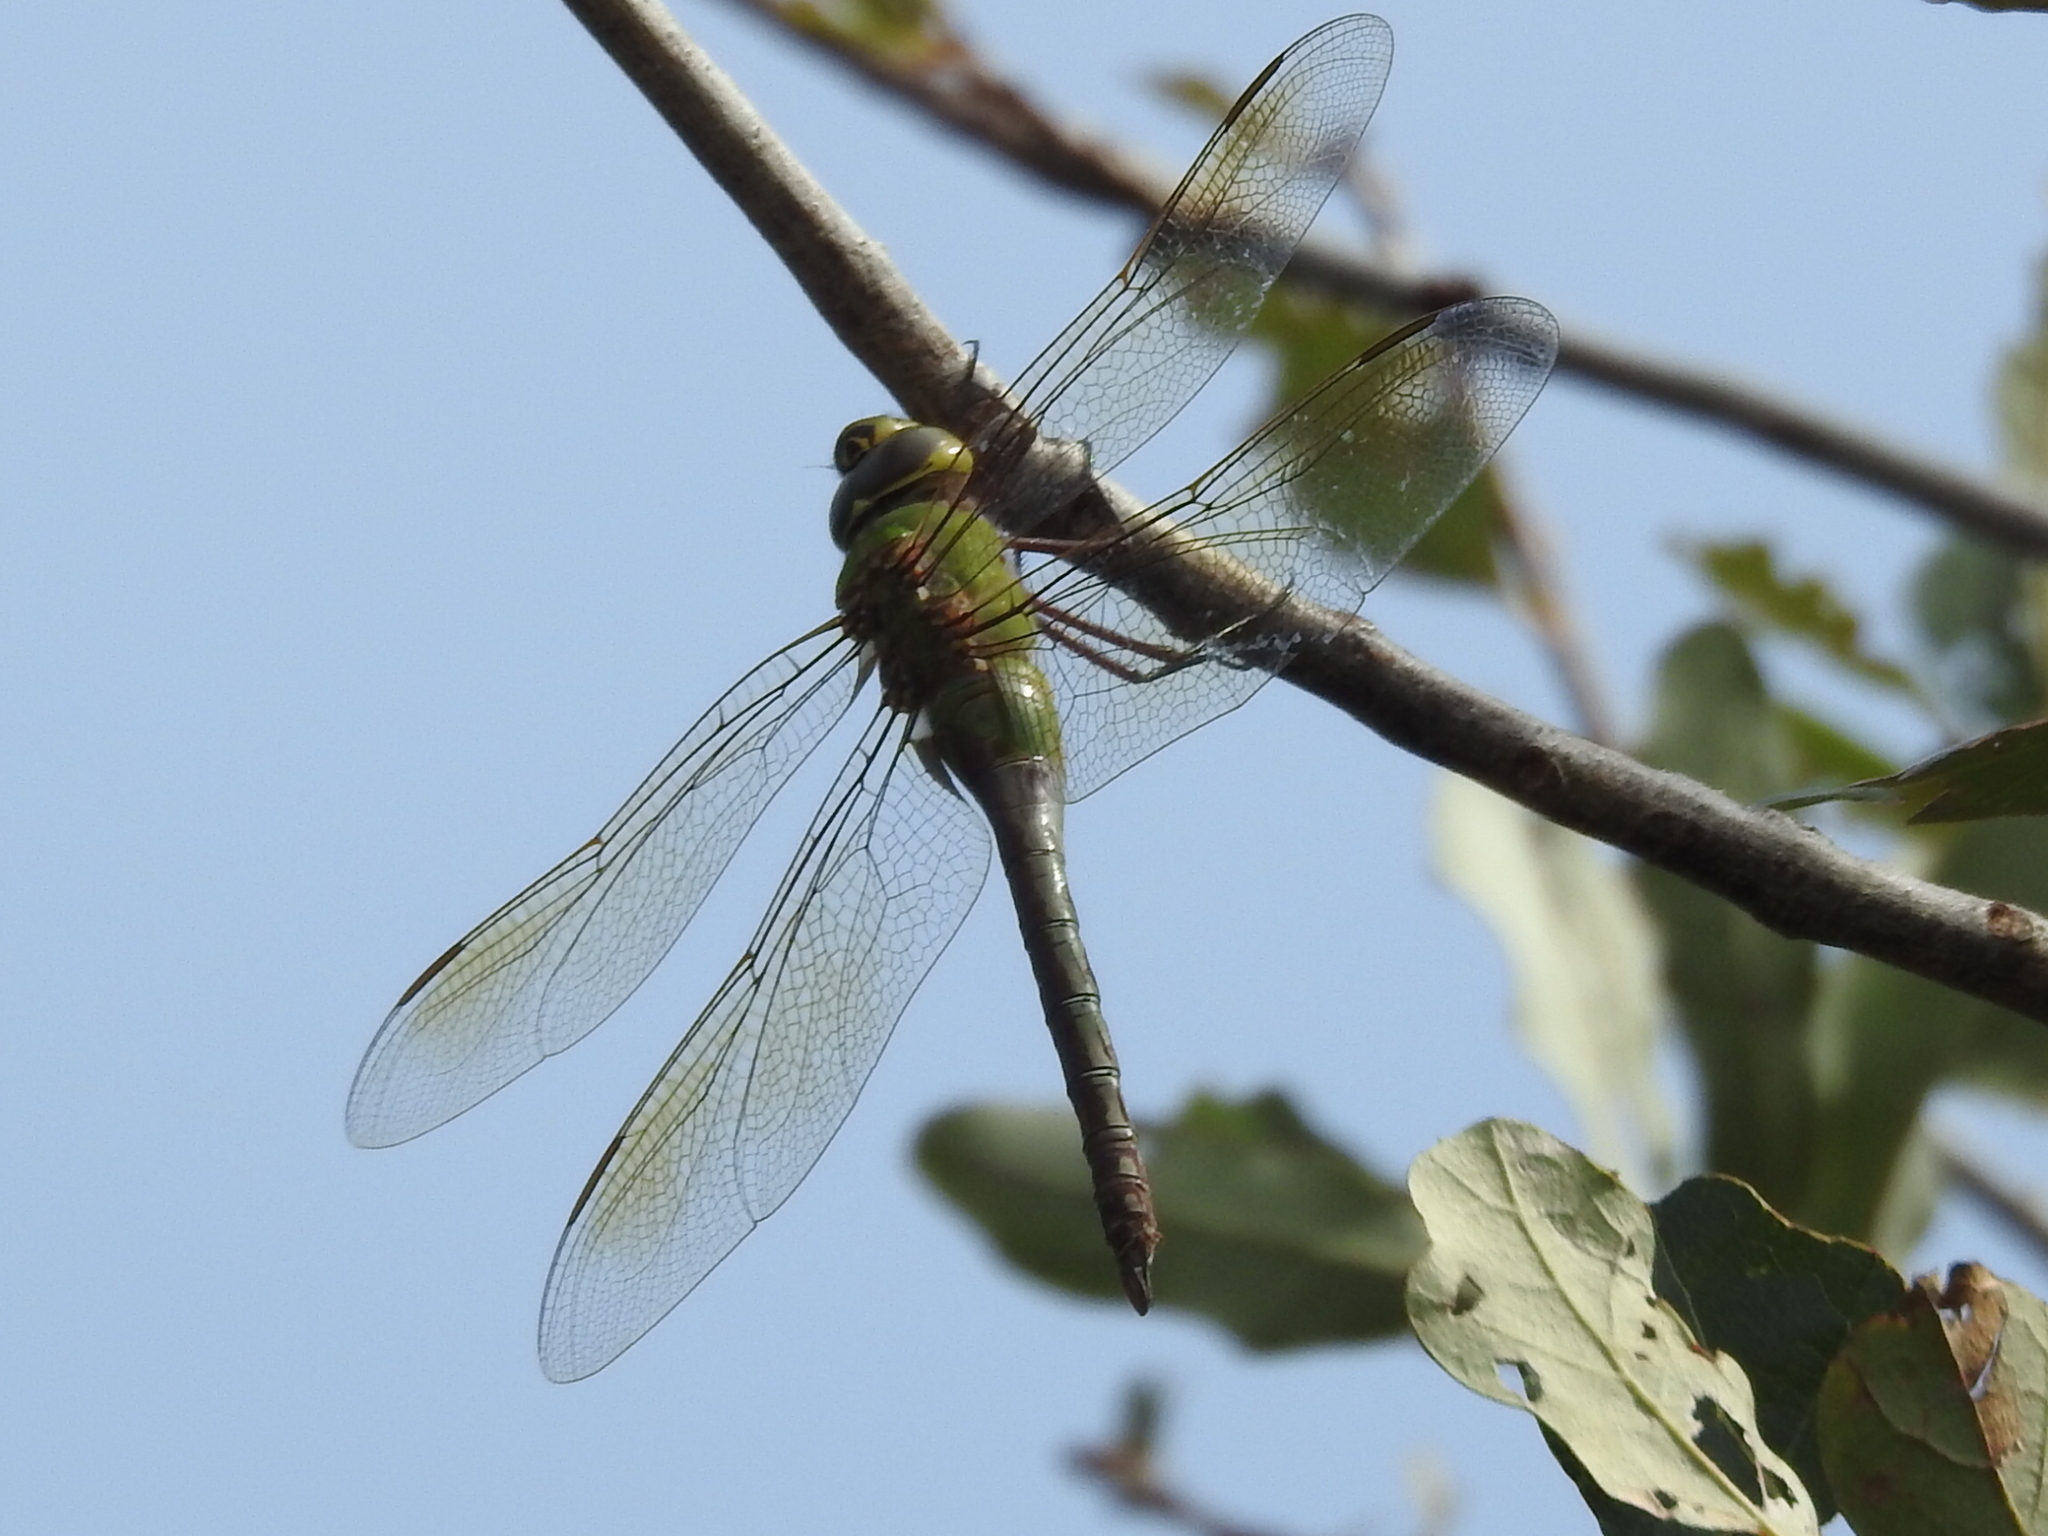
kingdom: Animalia
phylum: Arthropoda
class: Insecta
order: Odonata
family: Aeshnidae
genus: Anax
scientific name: Anax junius
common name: Common green darner
